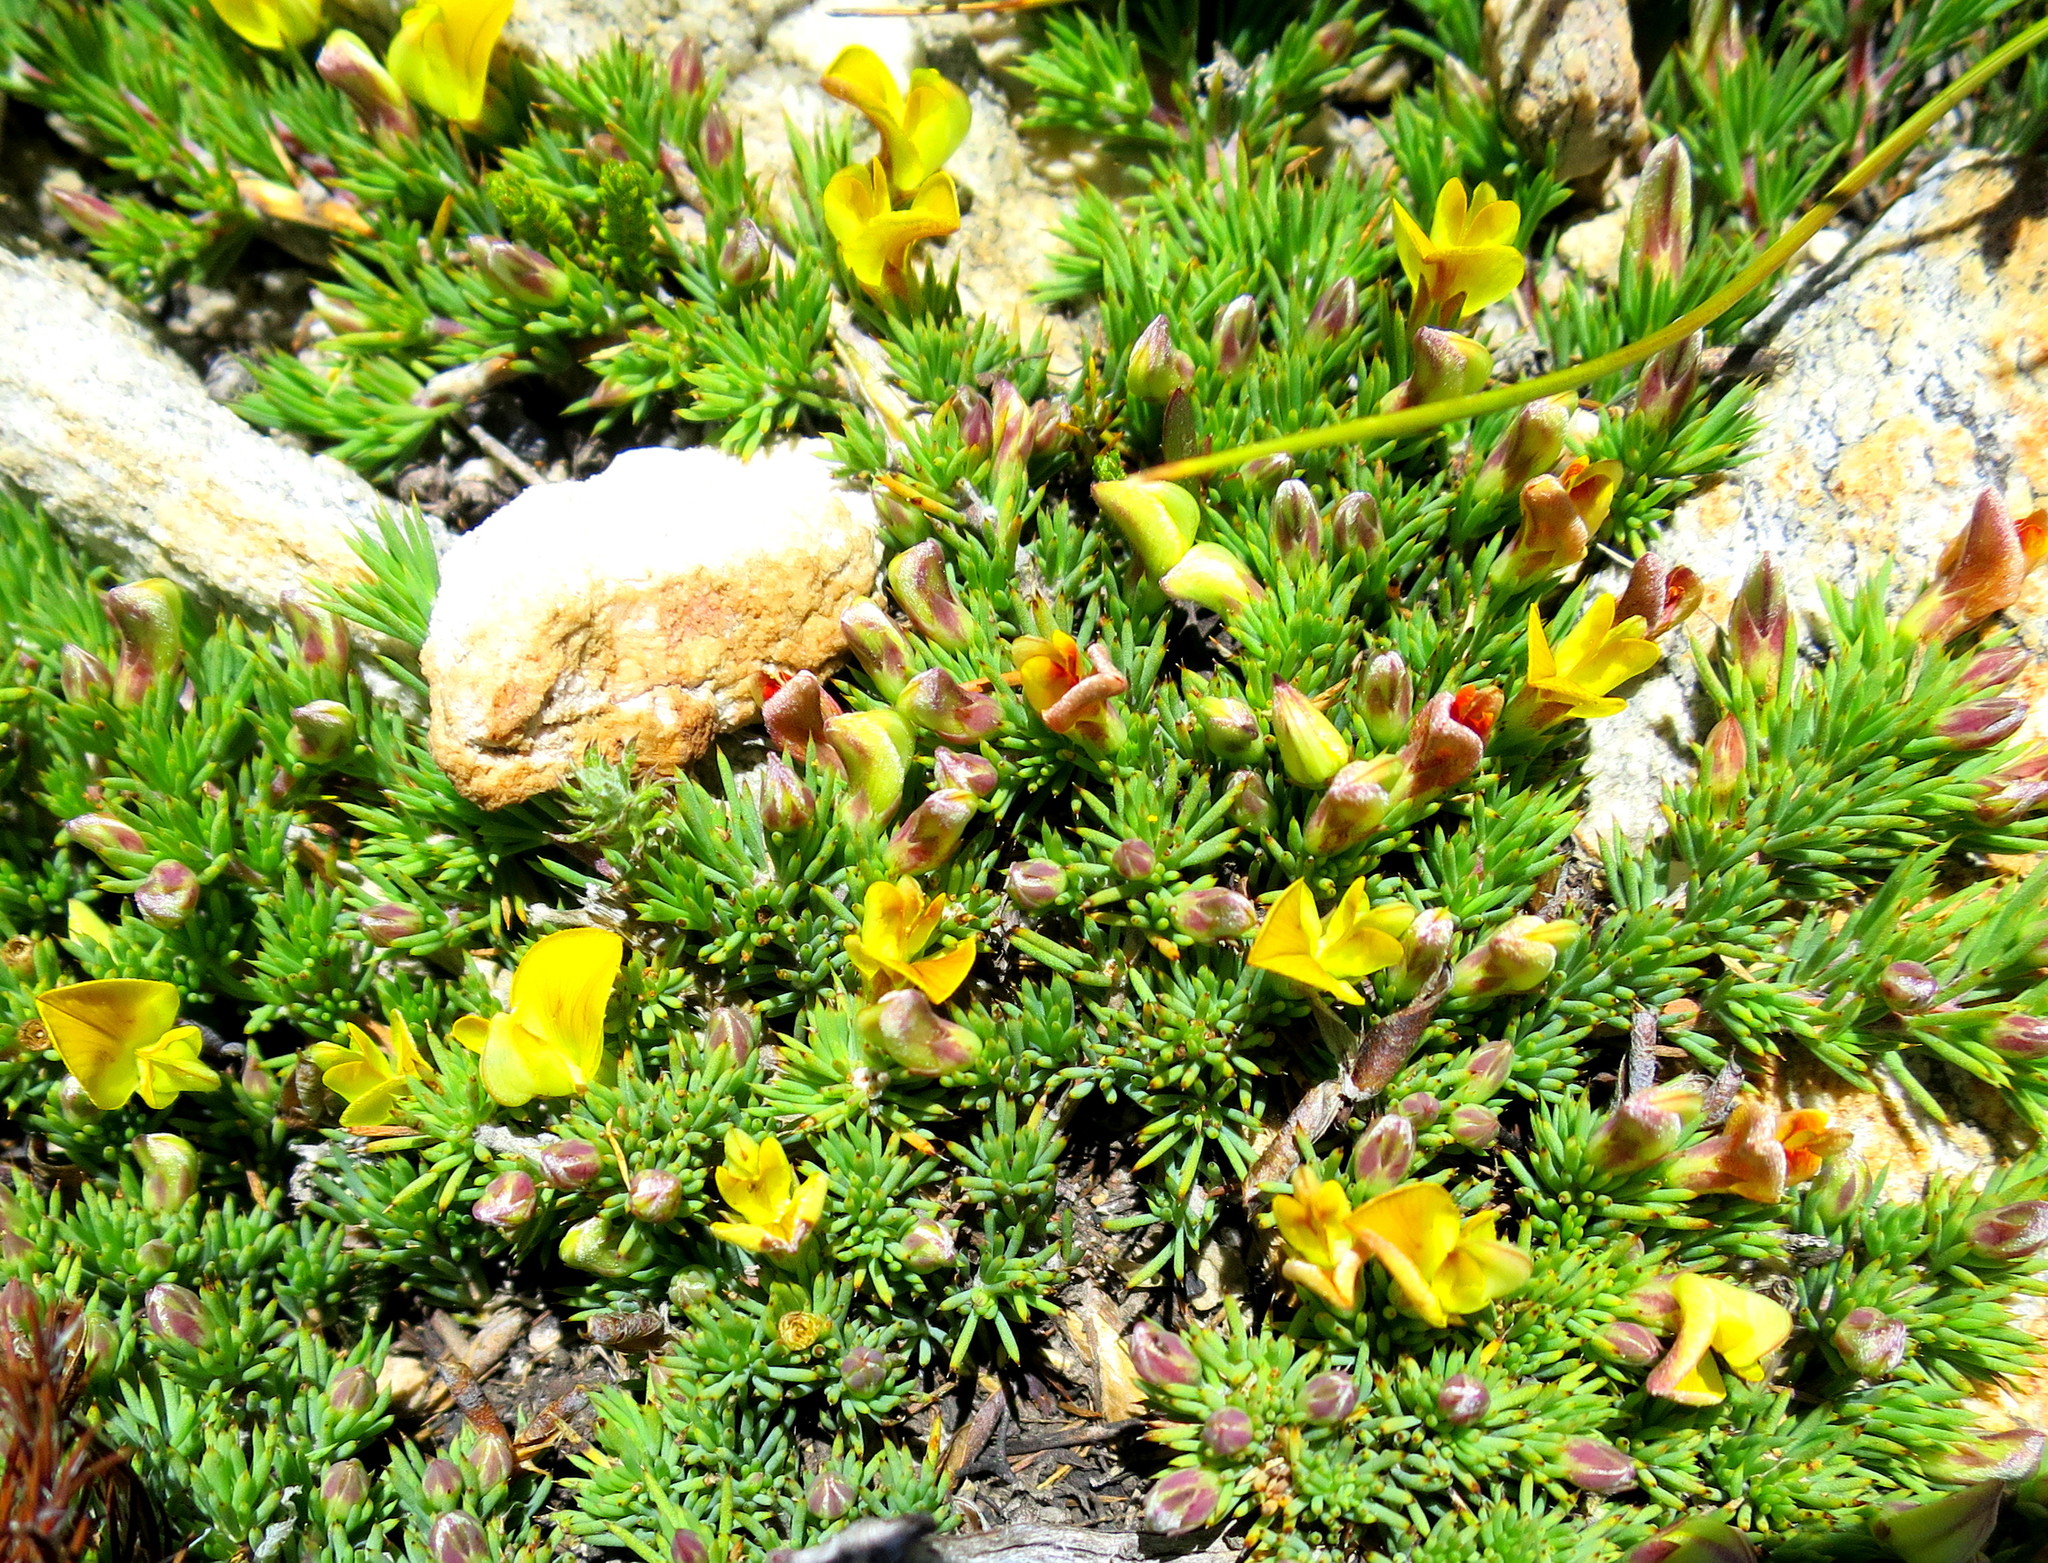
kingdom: Plantae
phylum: Tracheophyta
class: Magnoliopsida
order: Fabales
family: Fabaceae
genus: Aspalathus
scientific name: Aspalathus rigidifolia
